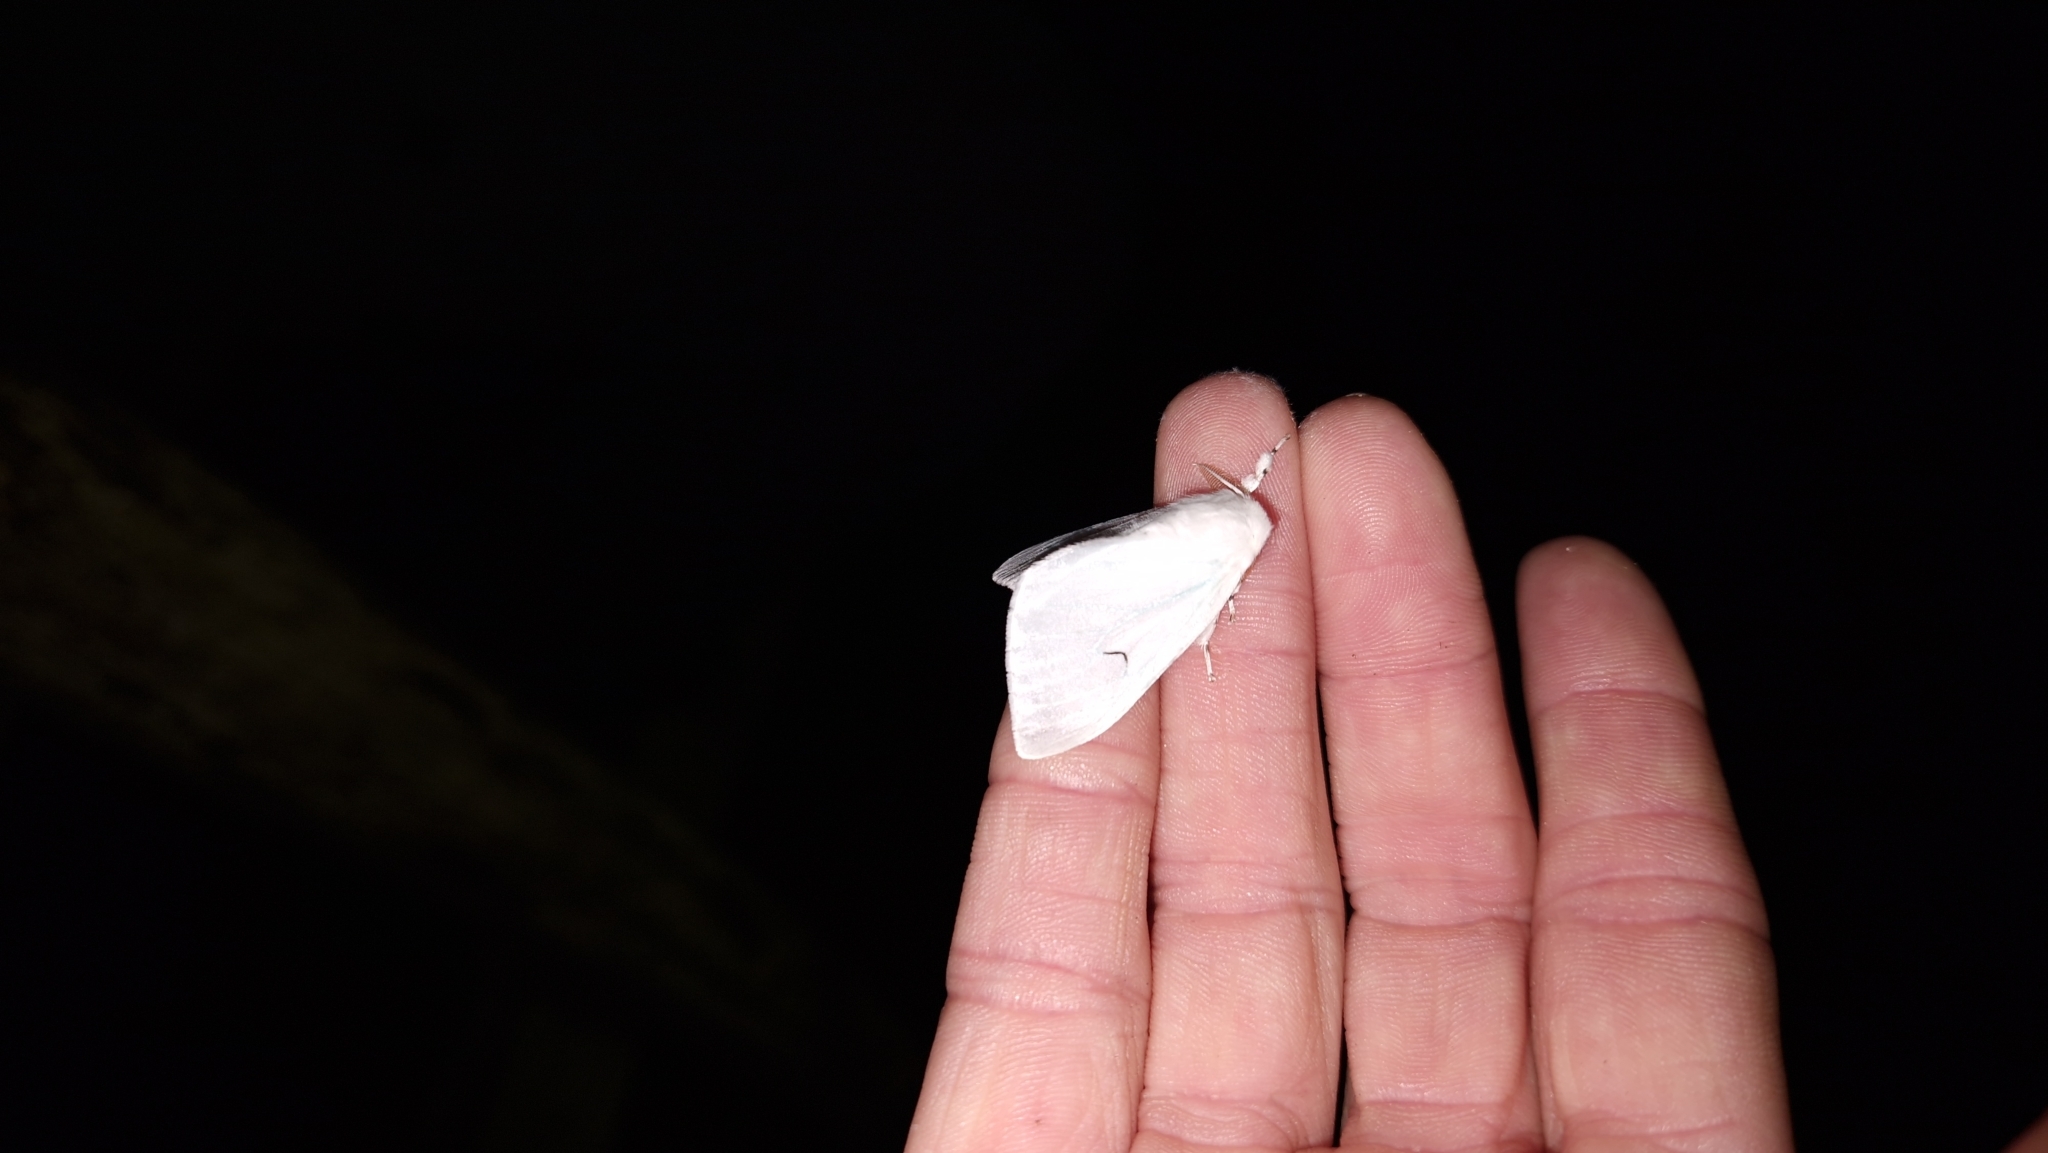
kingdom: Animalia
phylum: Arthropoda
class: Insecta
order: Lepidoptera
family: Erebidae
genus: Arctornis
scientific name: Arctornis l-nigrum
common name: Black v moth
